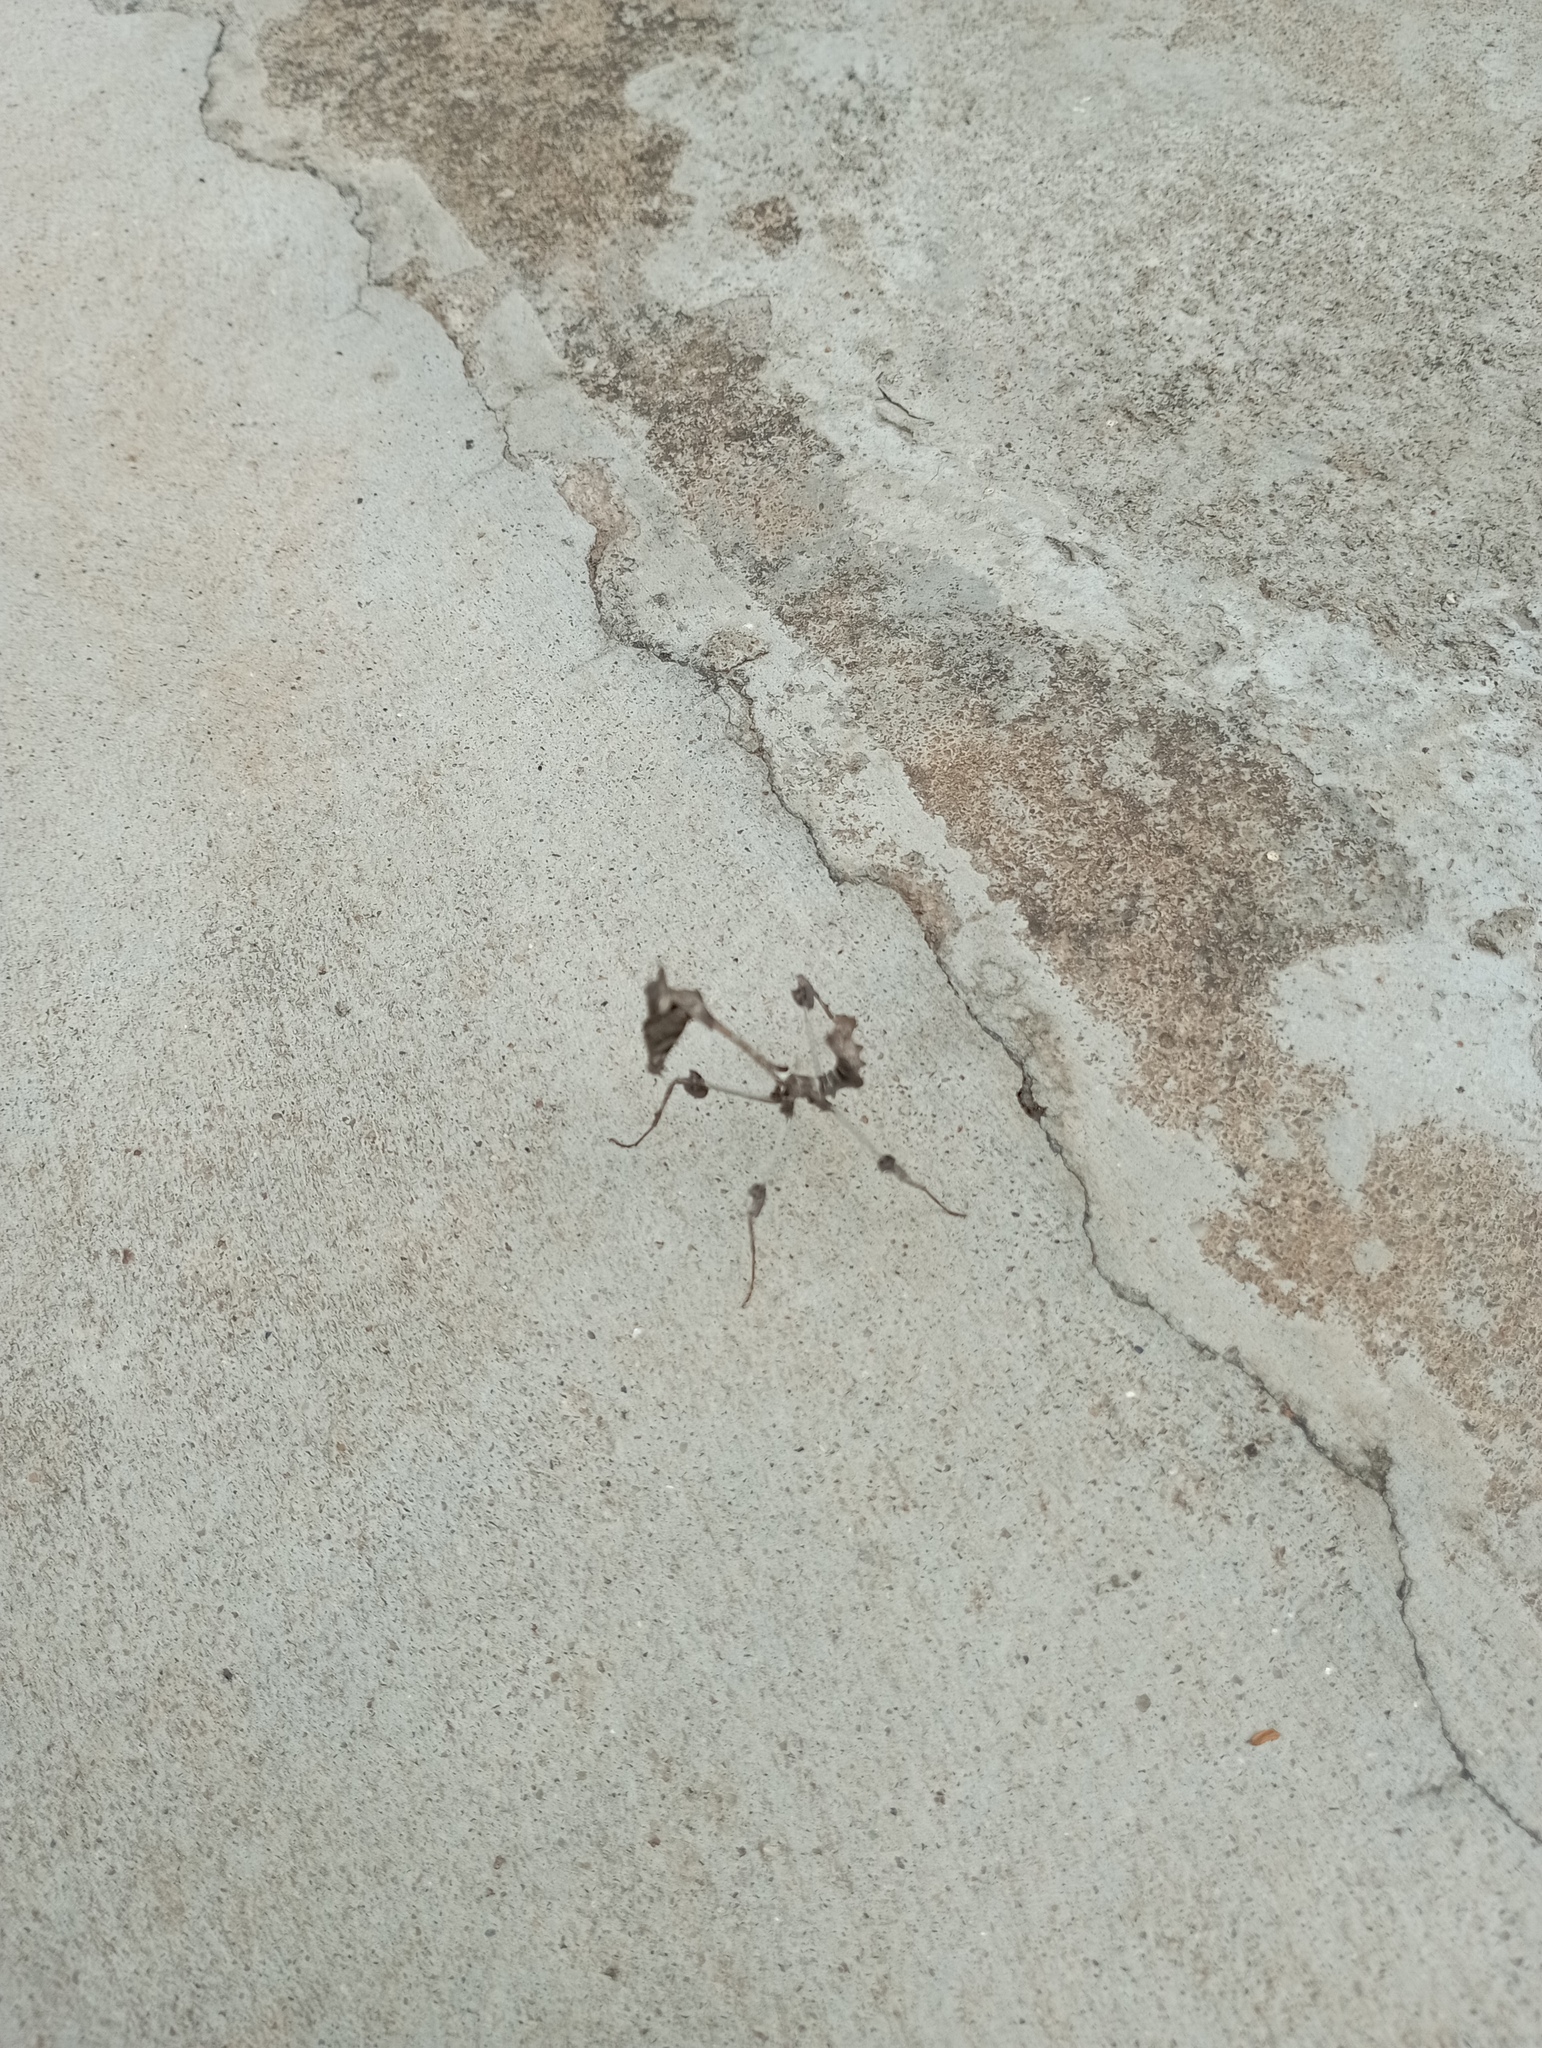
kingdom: Animalia
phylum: Arthropoda
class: Insecta
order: Mantodea
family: Empusidae
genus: Gongylus
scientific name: Gongylus gongylodes
